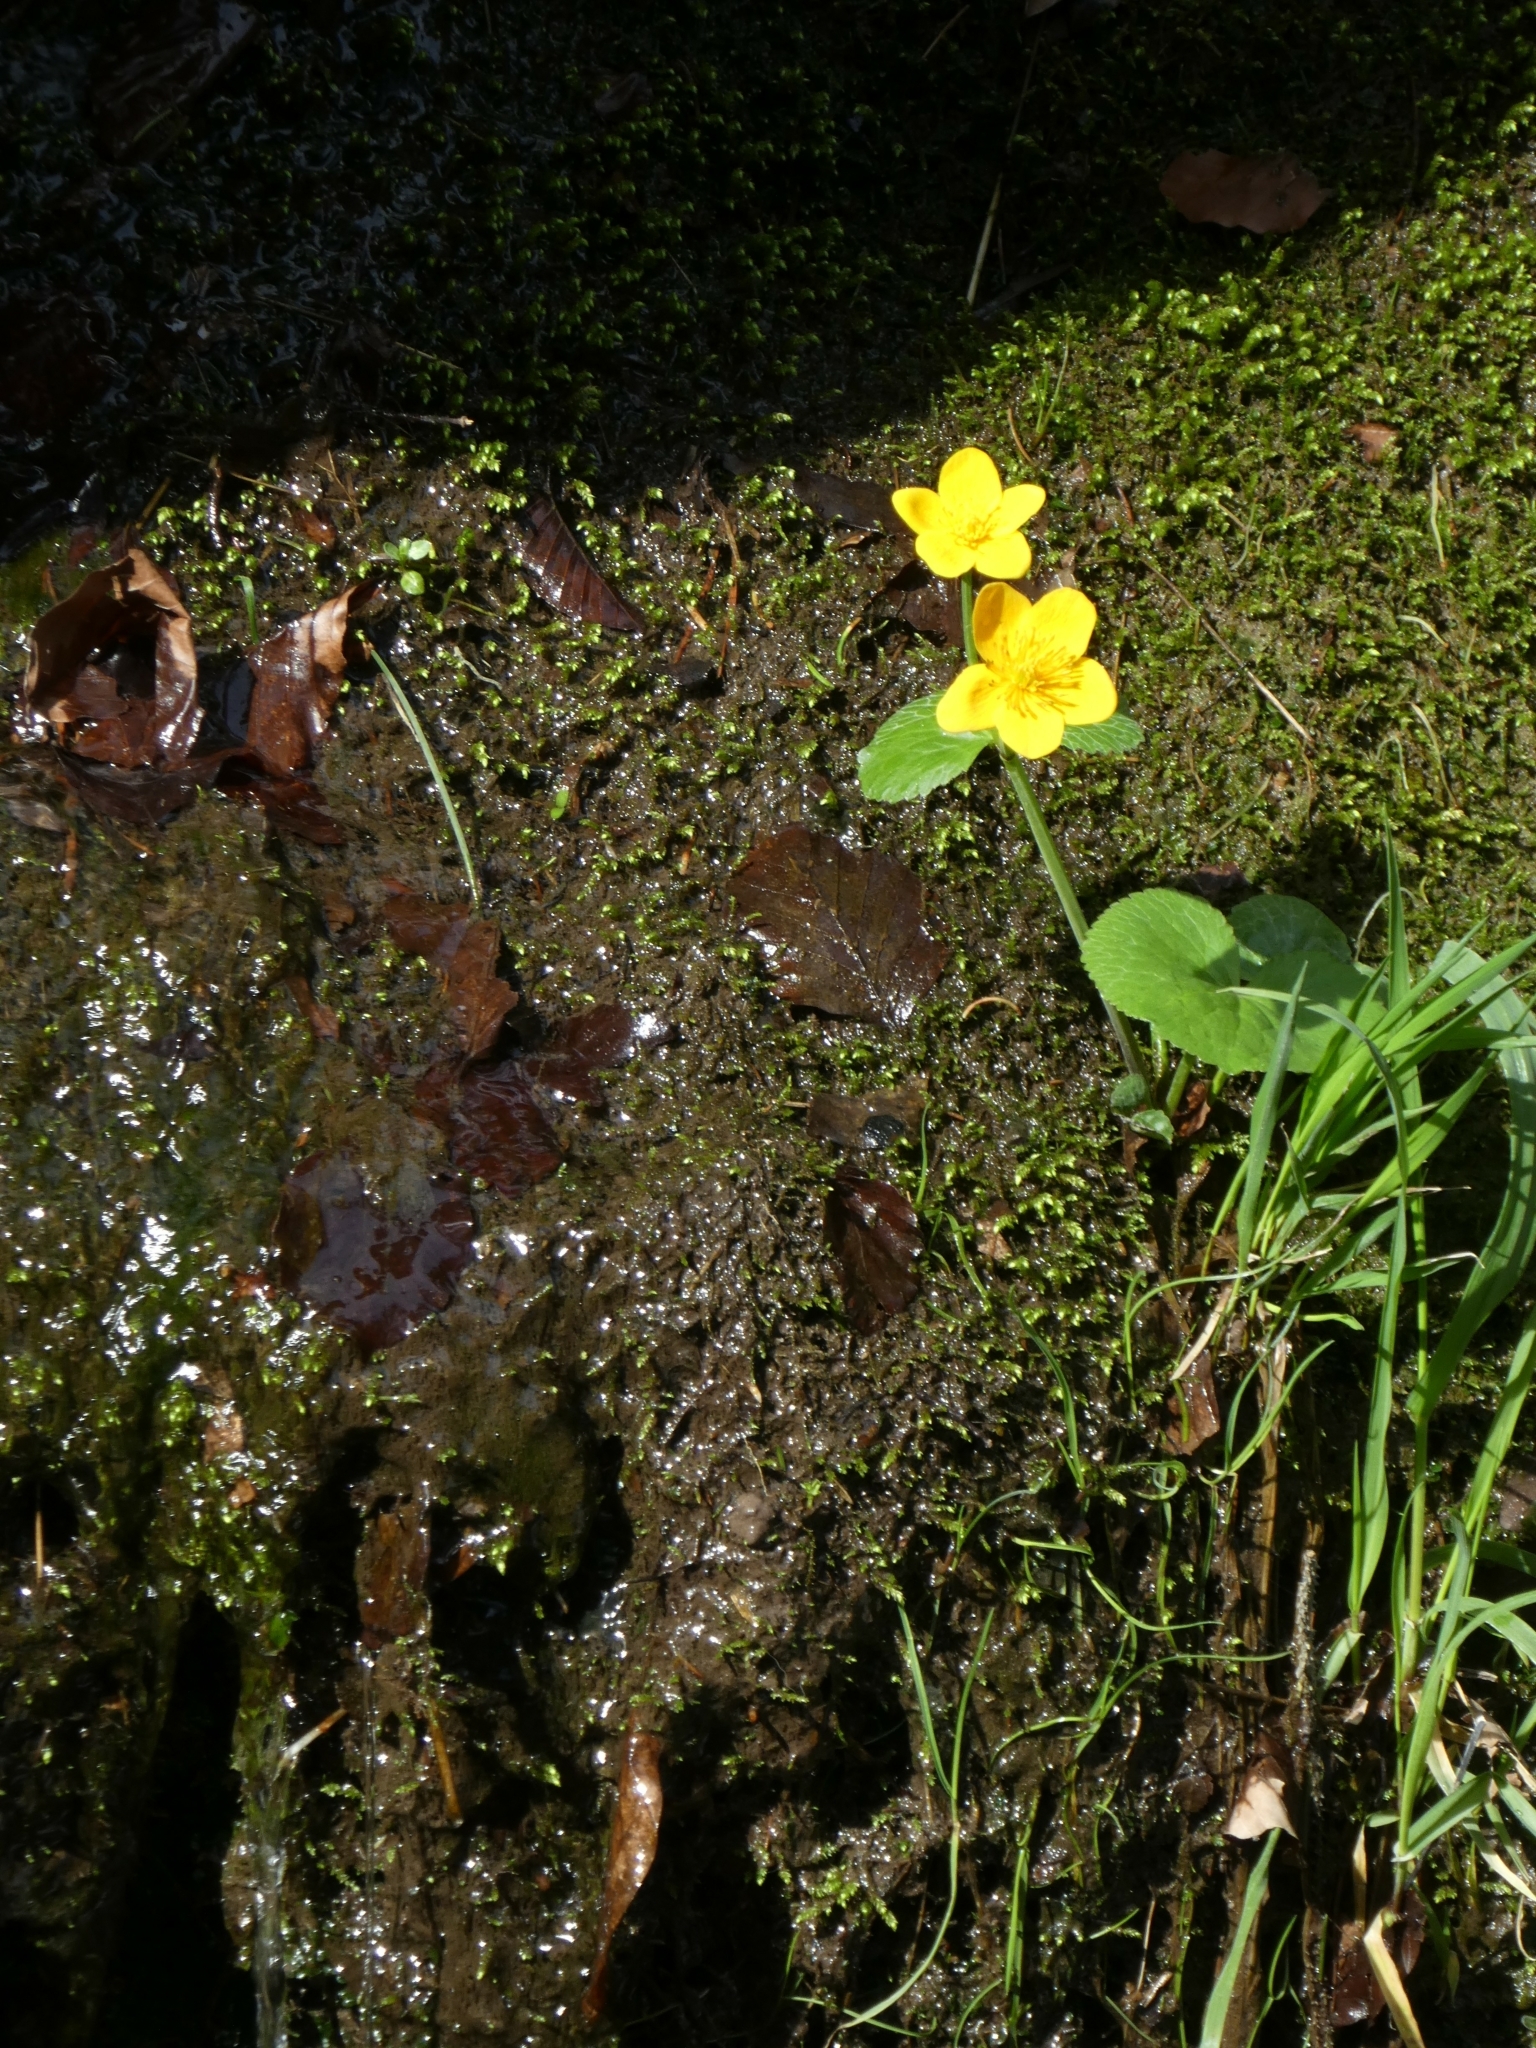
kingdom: Plantae
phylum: Tracheophyta
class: Magnoliopsida
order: Ranunculales
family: Ranunculaceae
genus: Caltha
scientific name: Caltha palustris
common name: Marsh marigold
